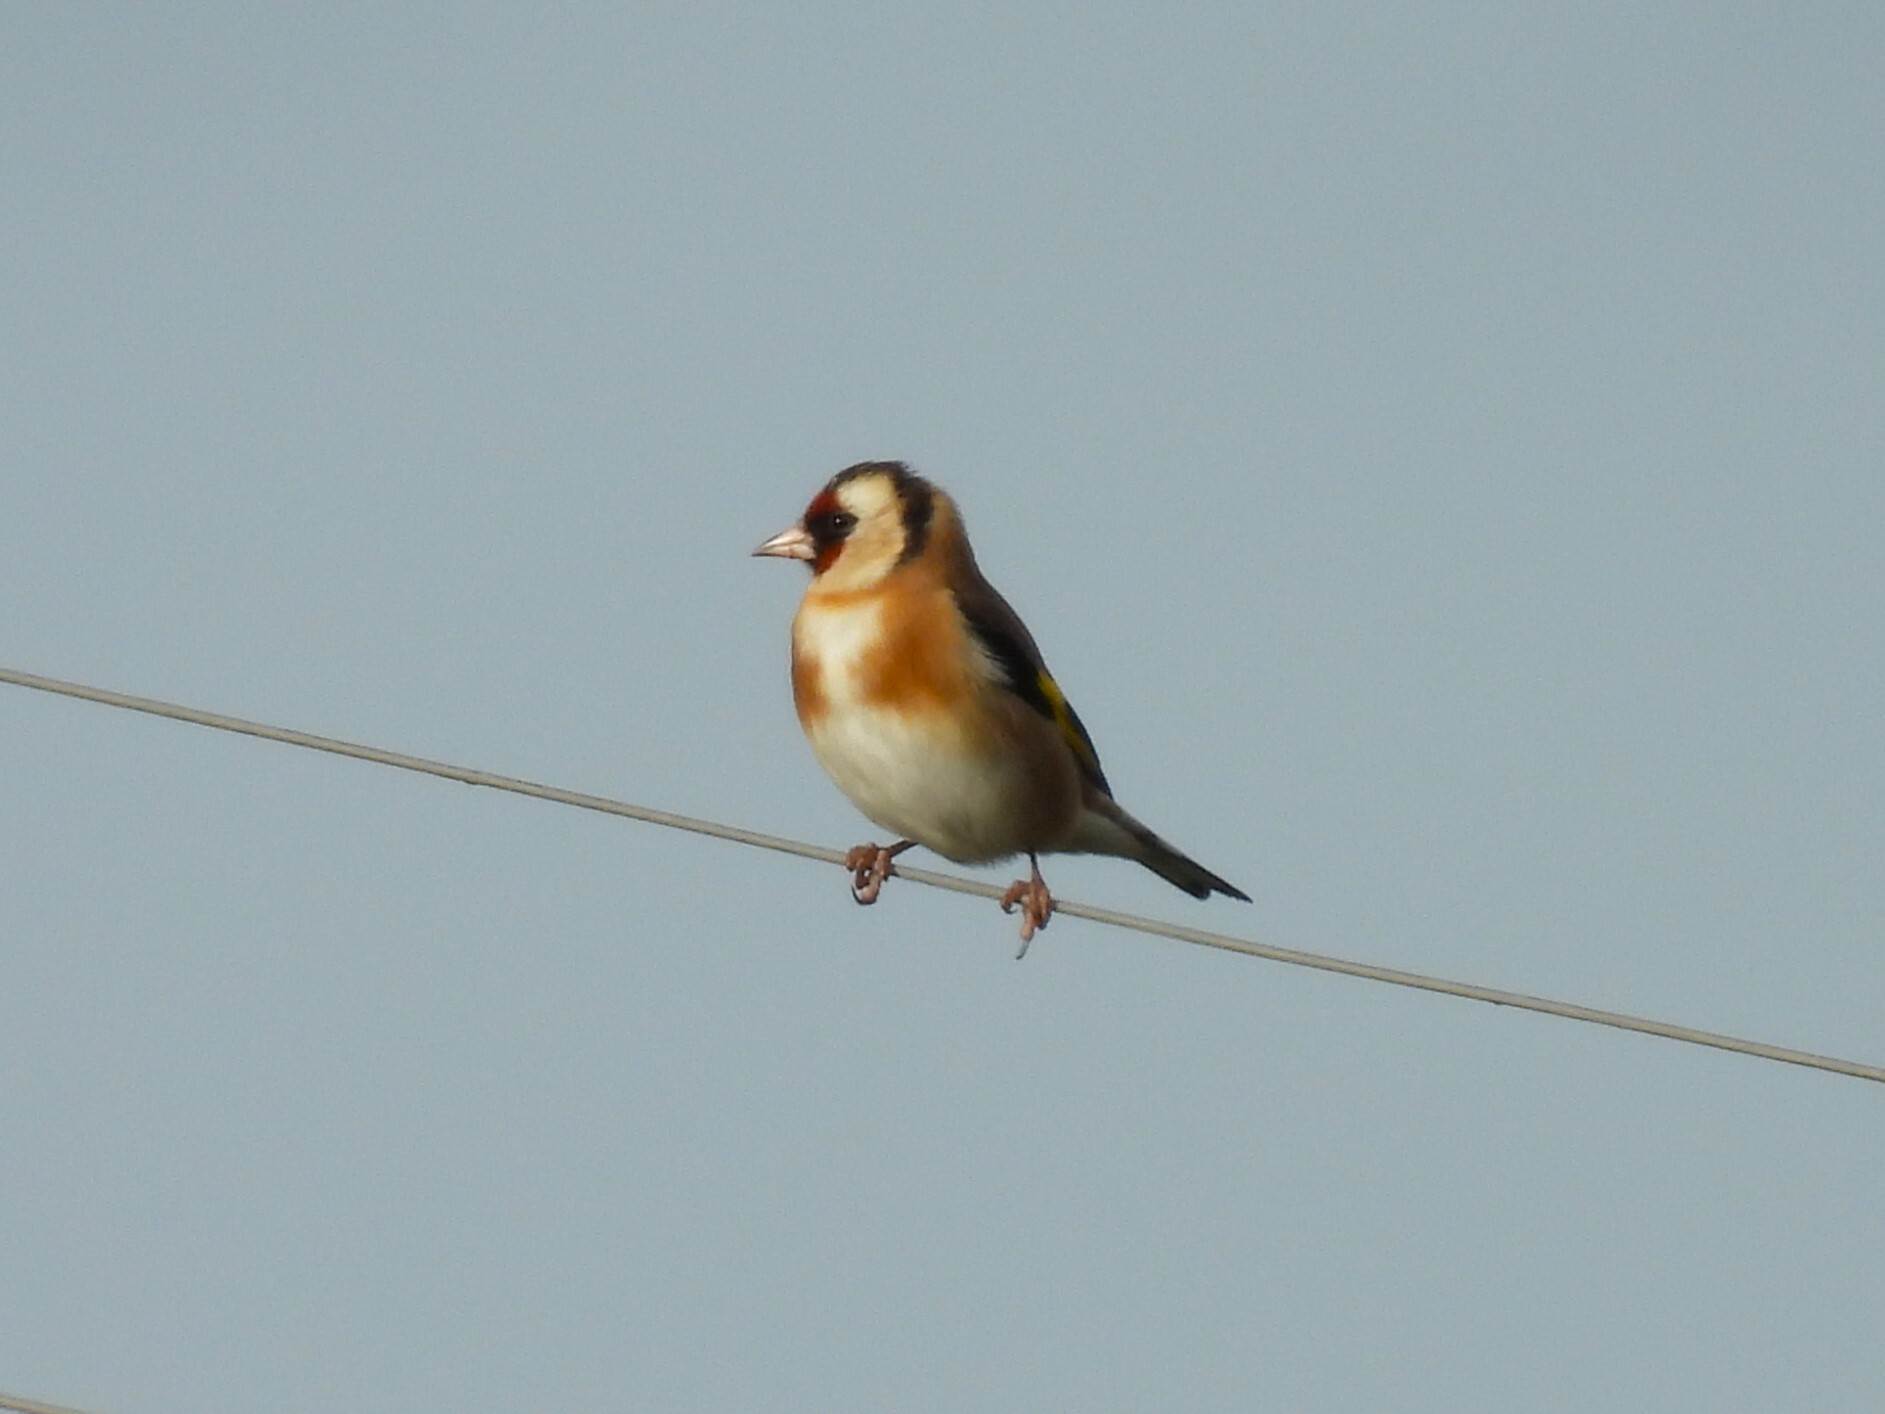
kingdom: Animalia
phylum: Chordata
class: Aves
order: Passeriformes
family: Fringillidae
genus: Carduelis
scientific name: Carduelis carduelis
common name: European goldfinch
